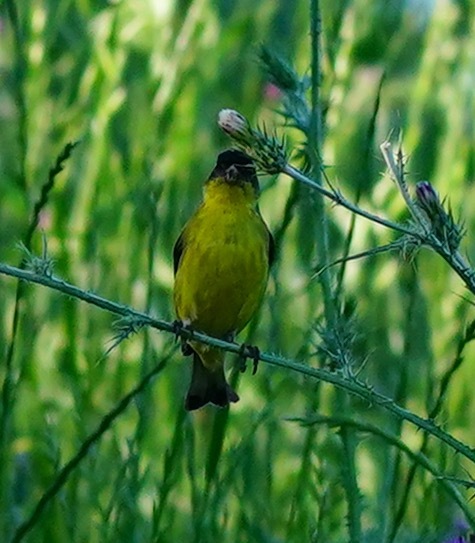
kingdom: Animalia
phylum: Chordata
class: Aves
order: Passeriformes
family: Fringillidae
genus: Spinus
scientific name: Spinus psaltria
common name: Lesser goldfinch
